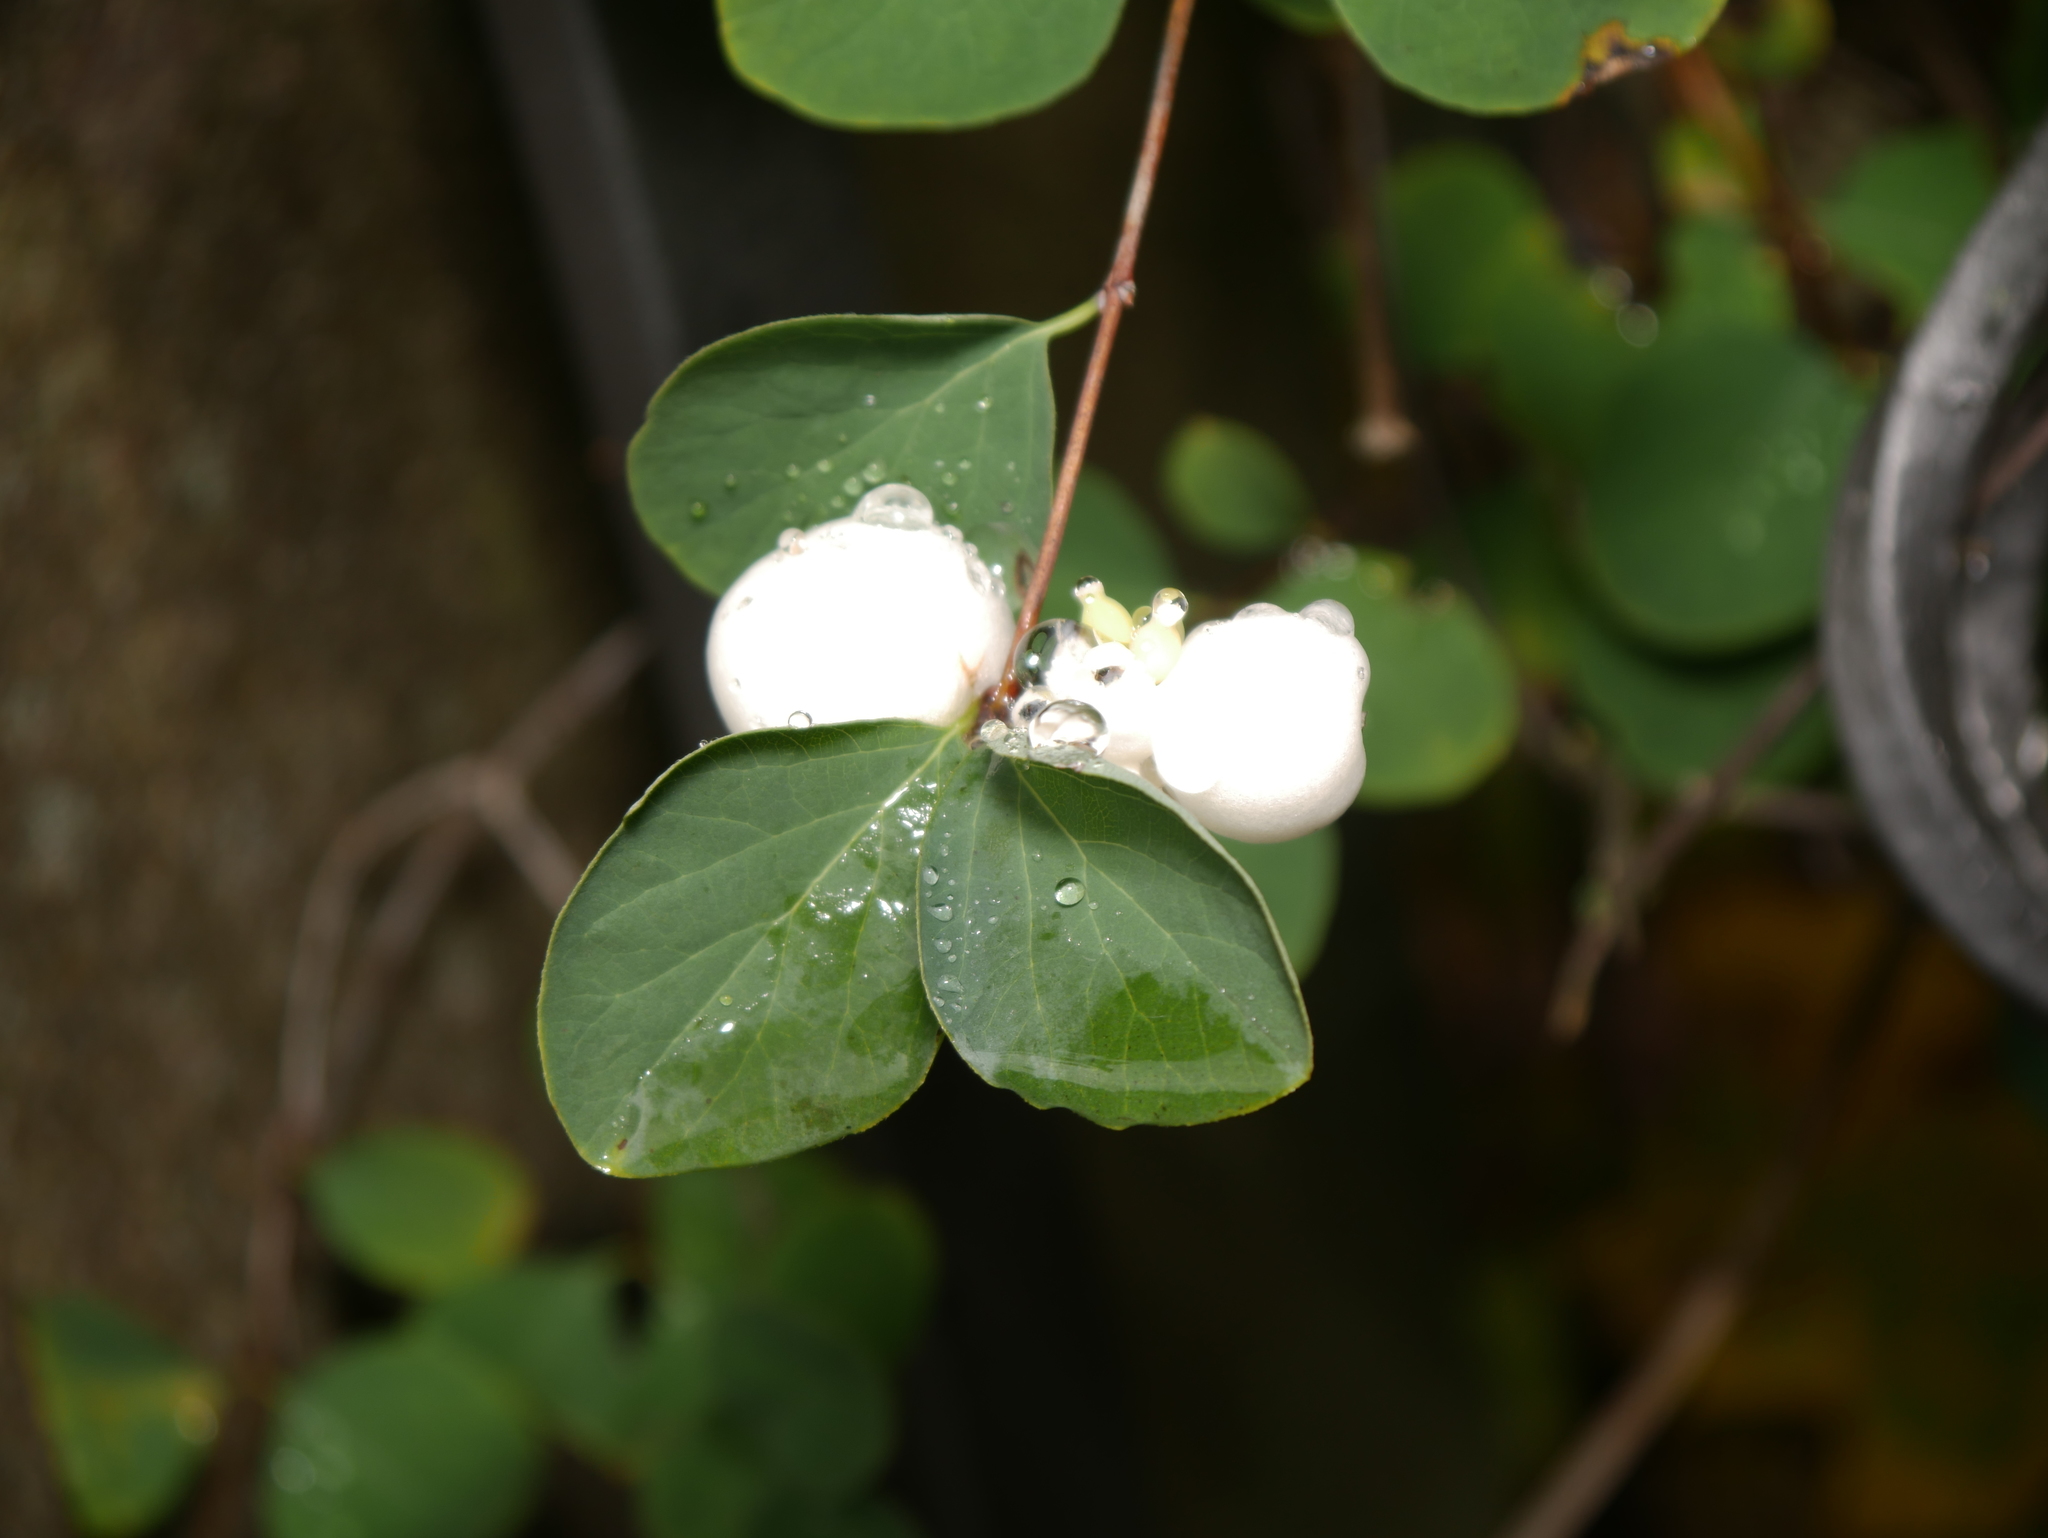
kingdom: Plantae
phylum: Tracheophyta
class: Magnoliopsida
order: Dipsacales
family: Caprifoliaceae
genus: Symphoricarpos
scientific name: Symphoricarpos albus
